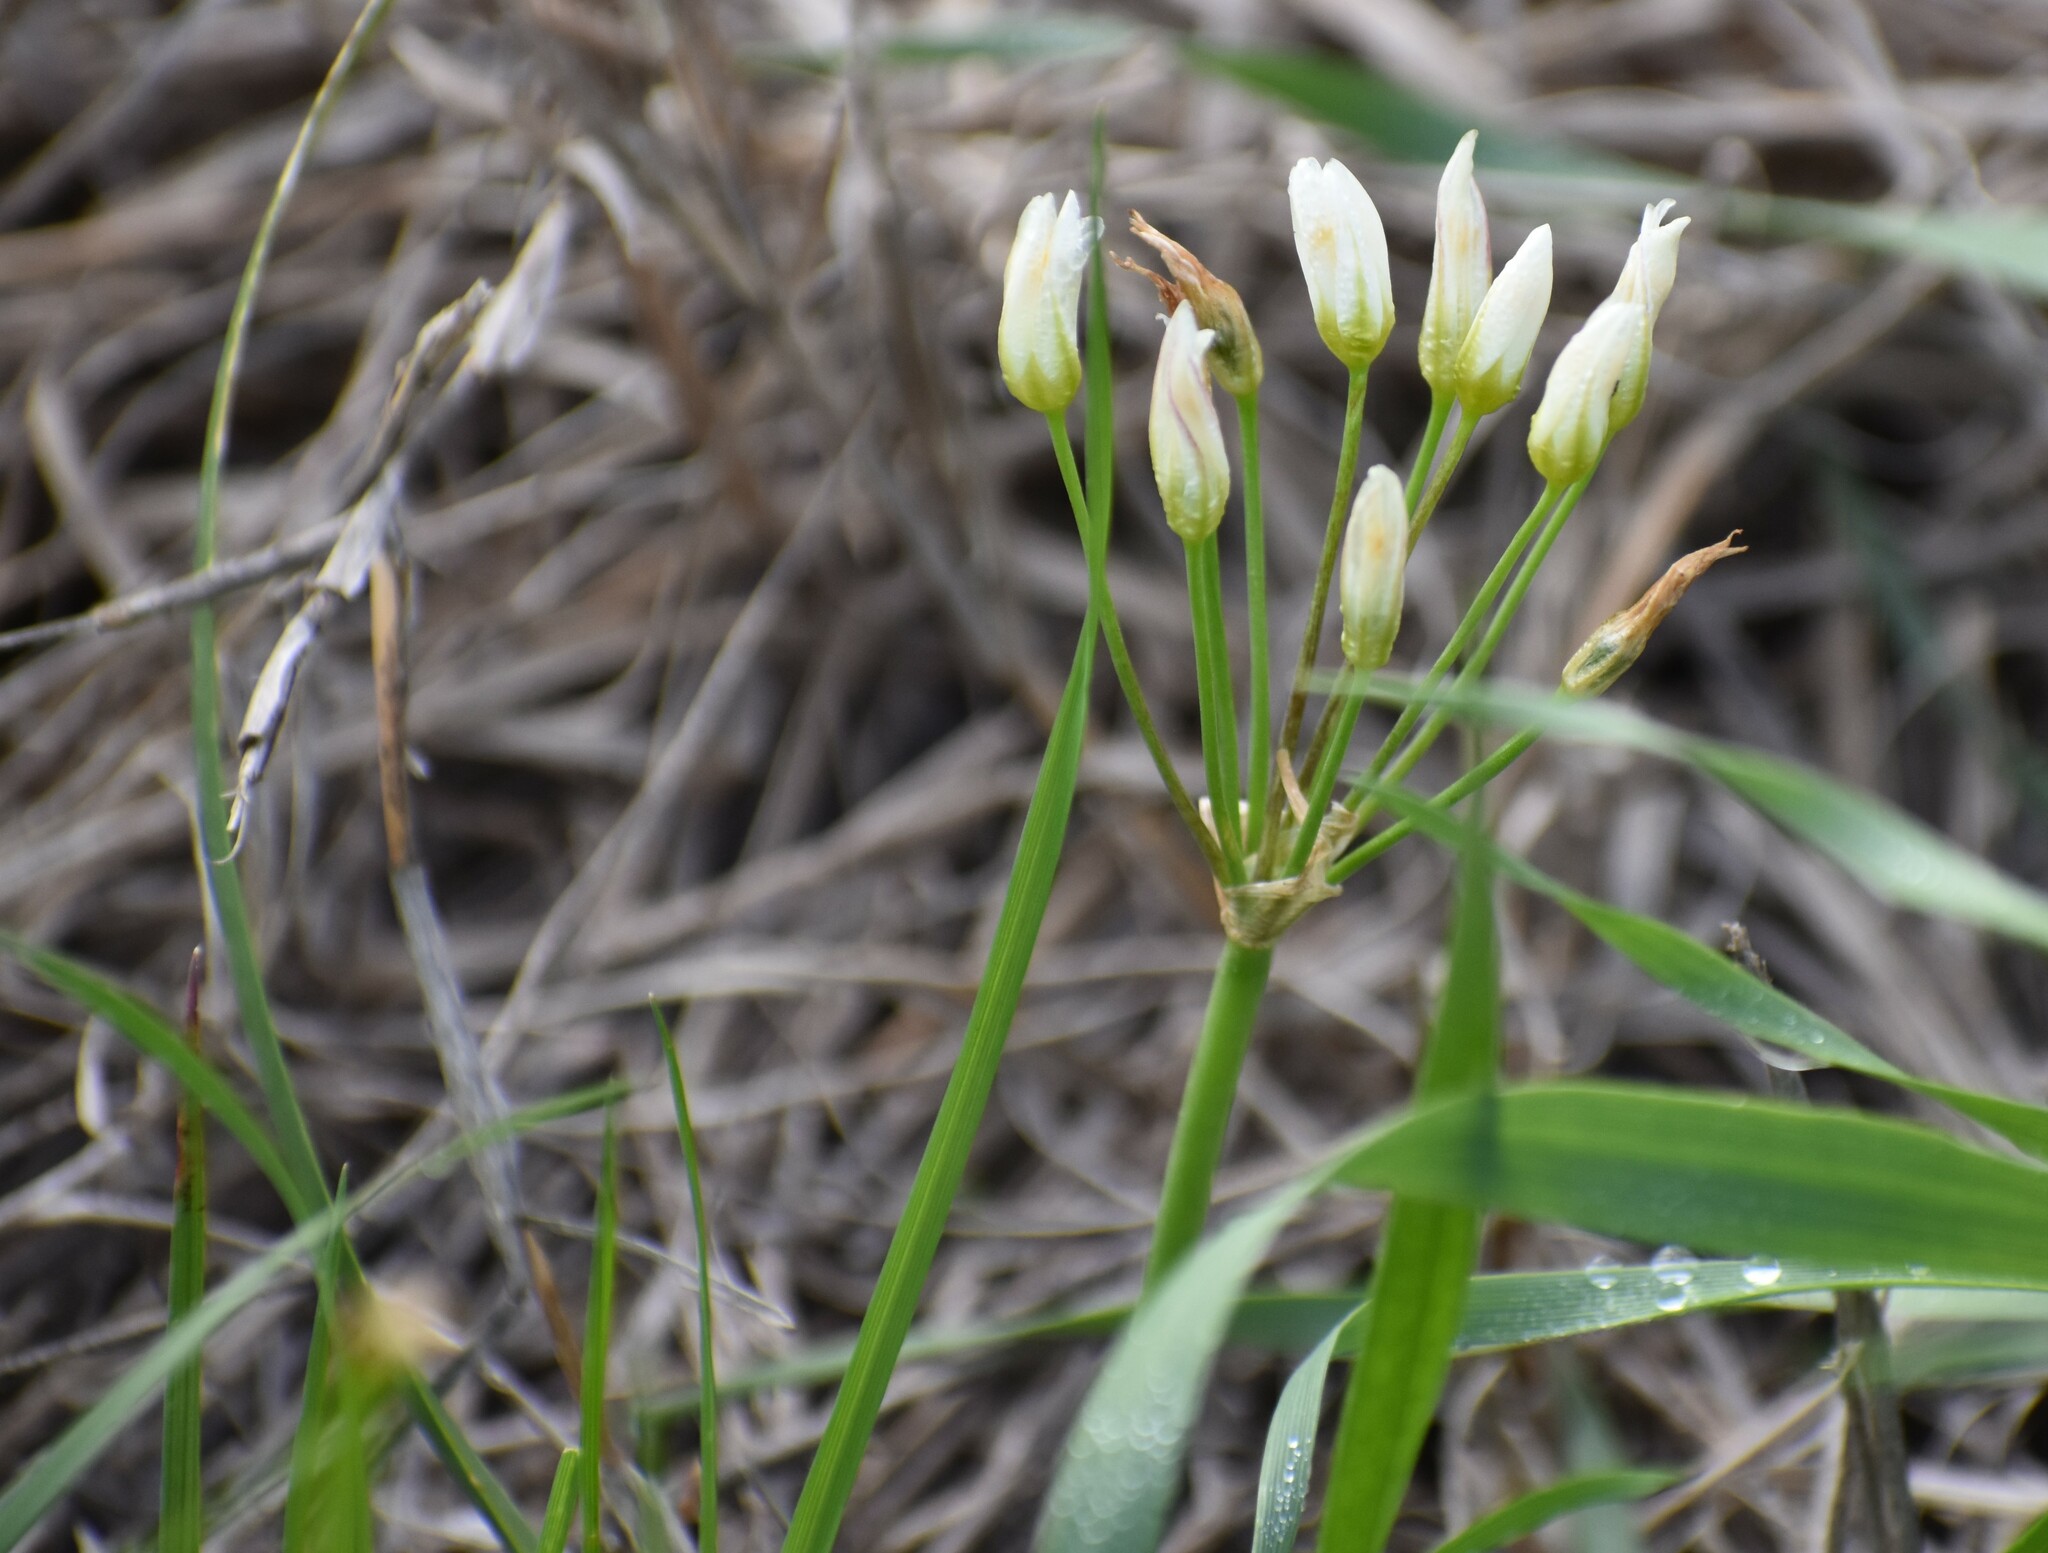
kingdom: Plantae
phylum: Tracheophyta
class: Liliopsida
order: Asparagales
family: Amaryllidaceae
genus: Nothoscordum
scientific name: Nothoscordum bivalve
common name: Crow-poison
